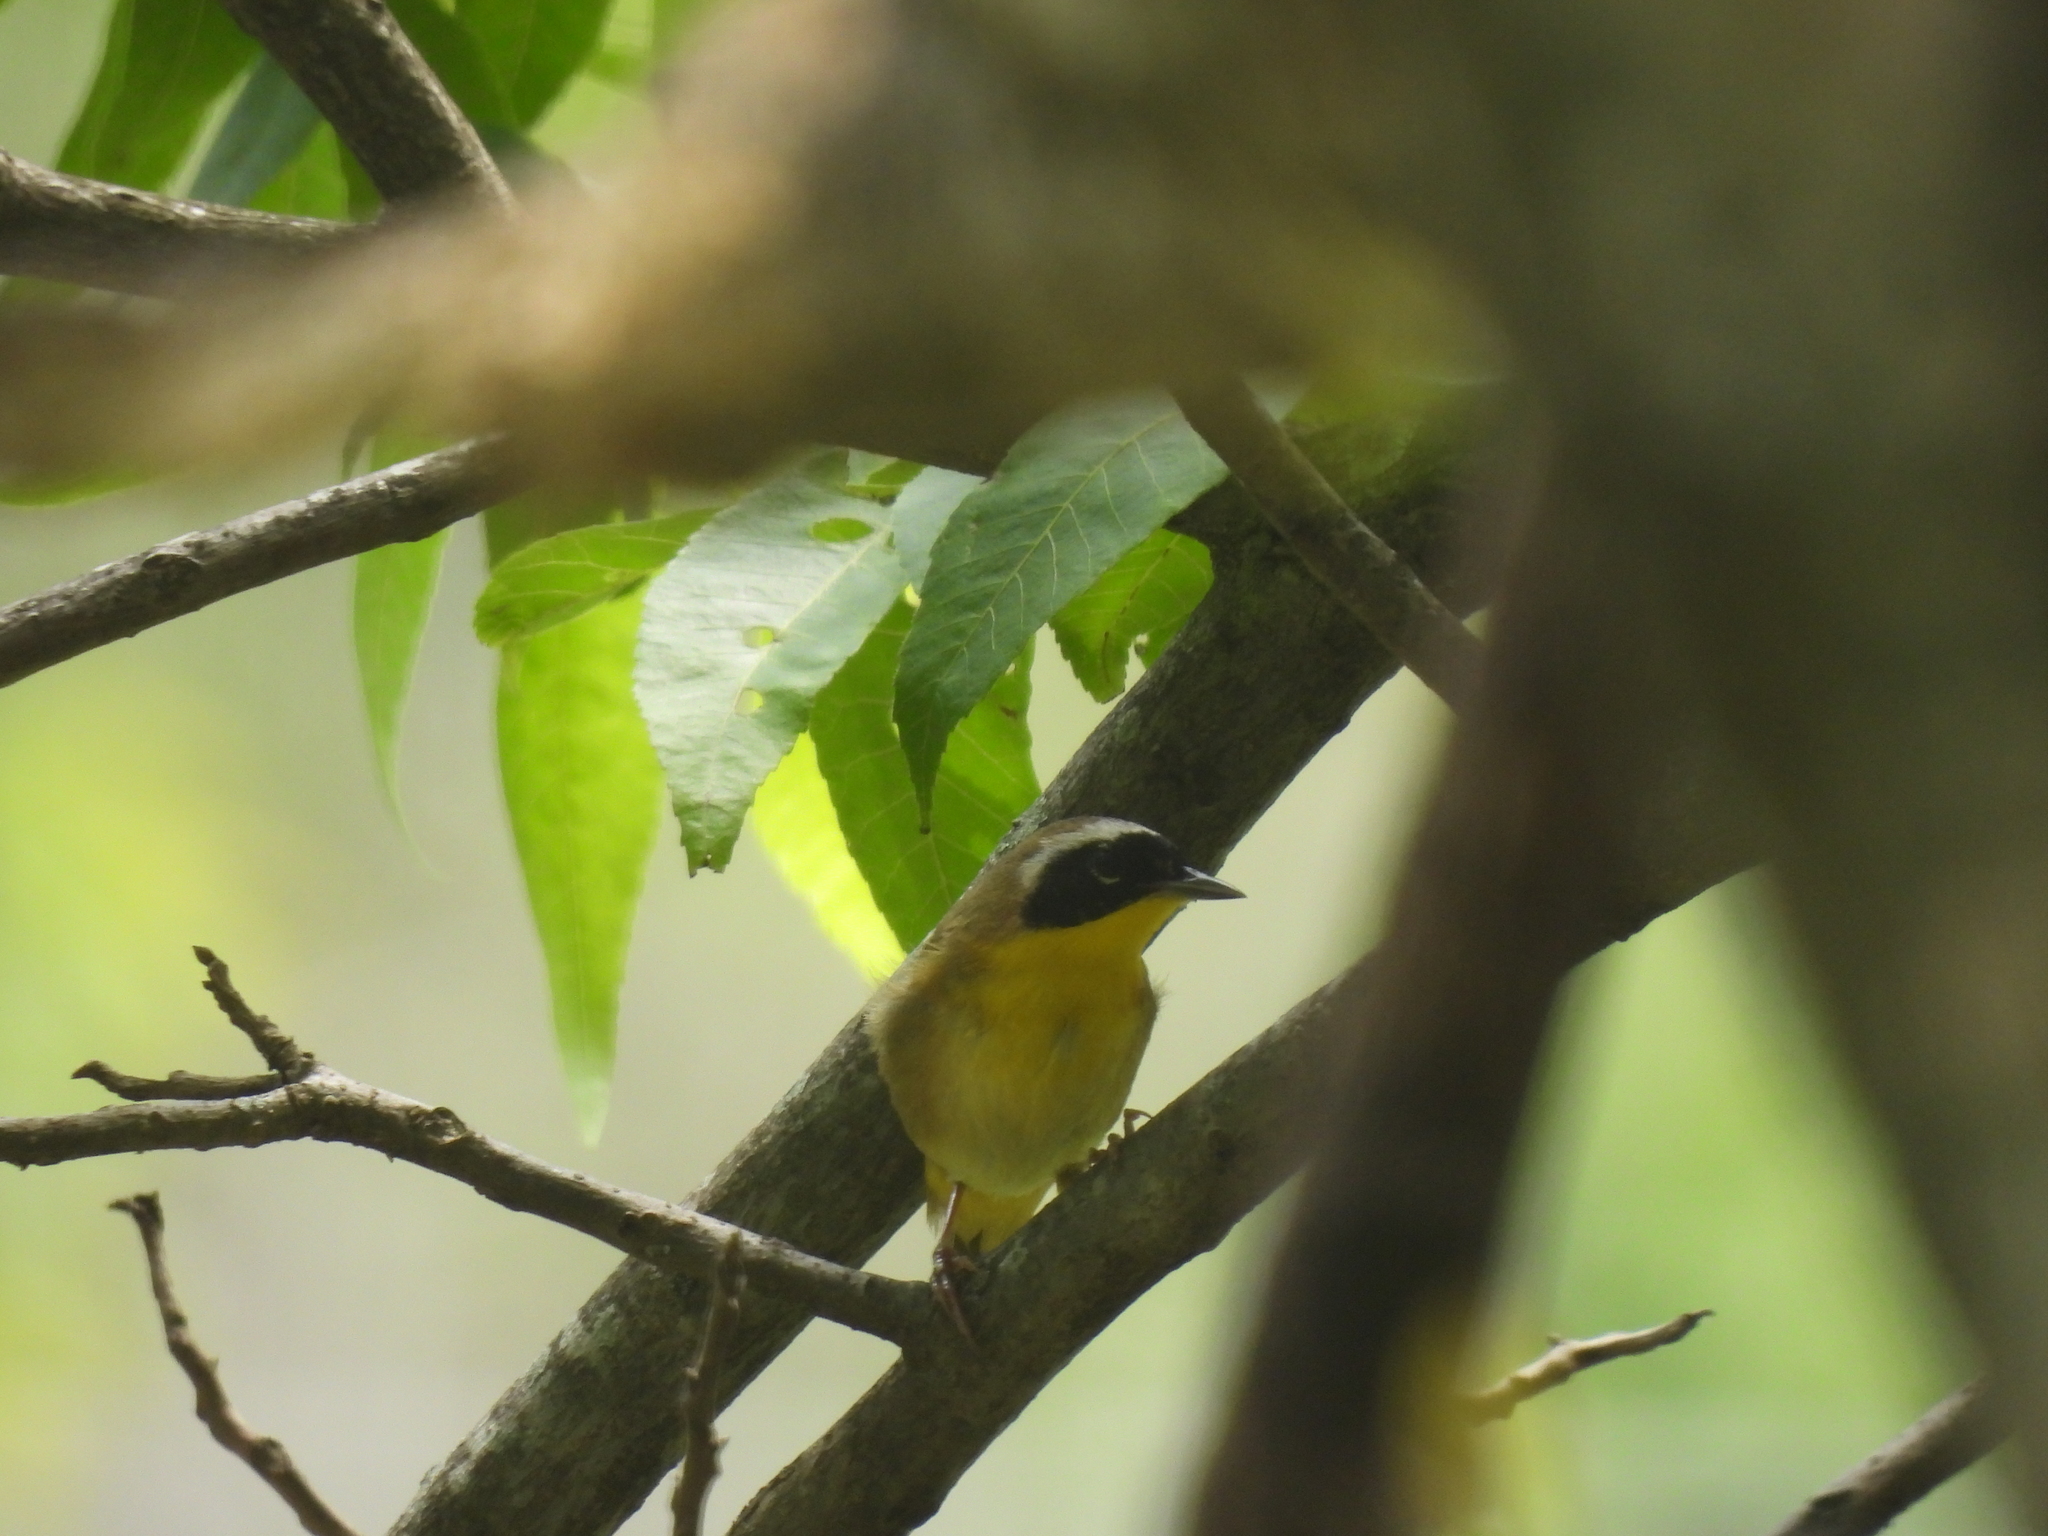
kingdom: Animalia
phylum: Chordata
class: Aves
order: Passeriformes
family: Parulidae
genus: Geothlypis
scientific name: Geothlypis trichas
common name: Common yellowthroat
